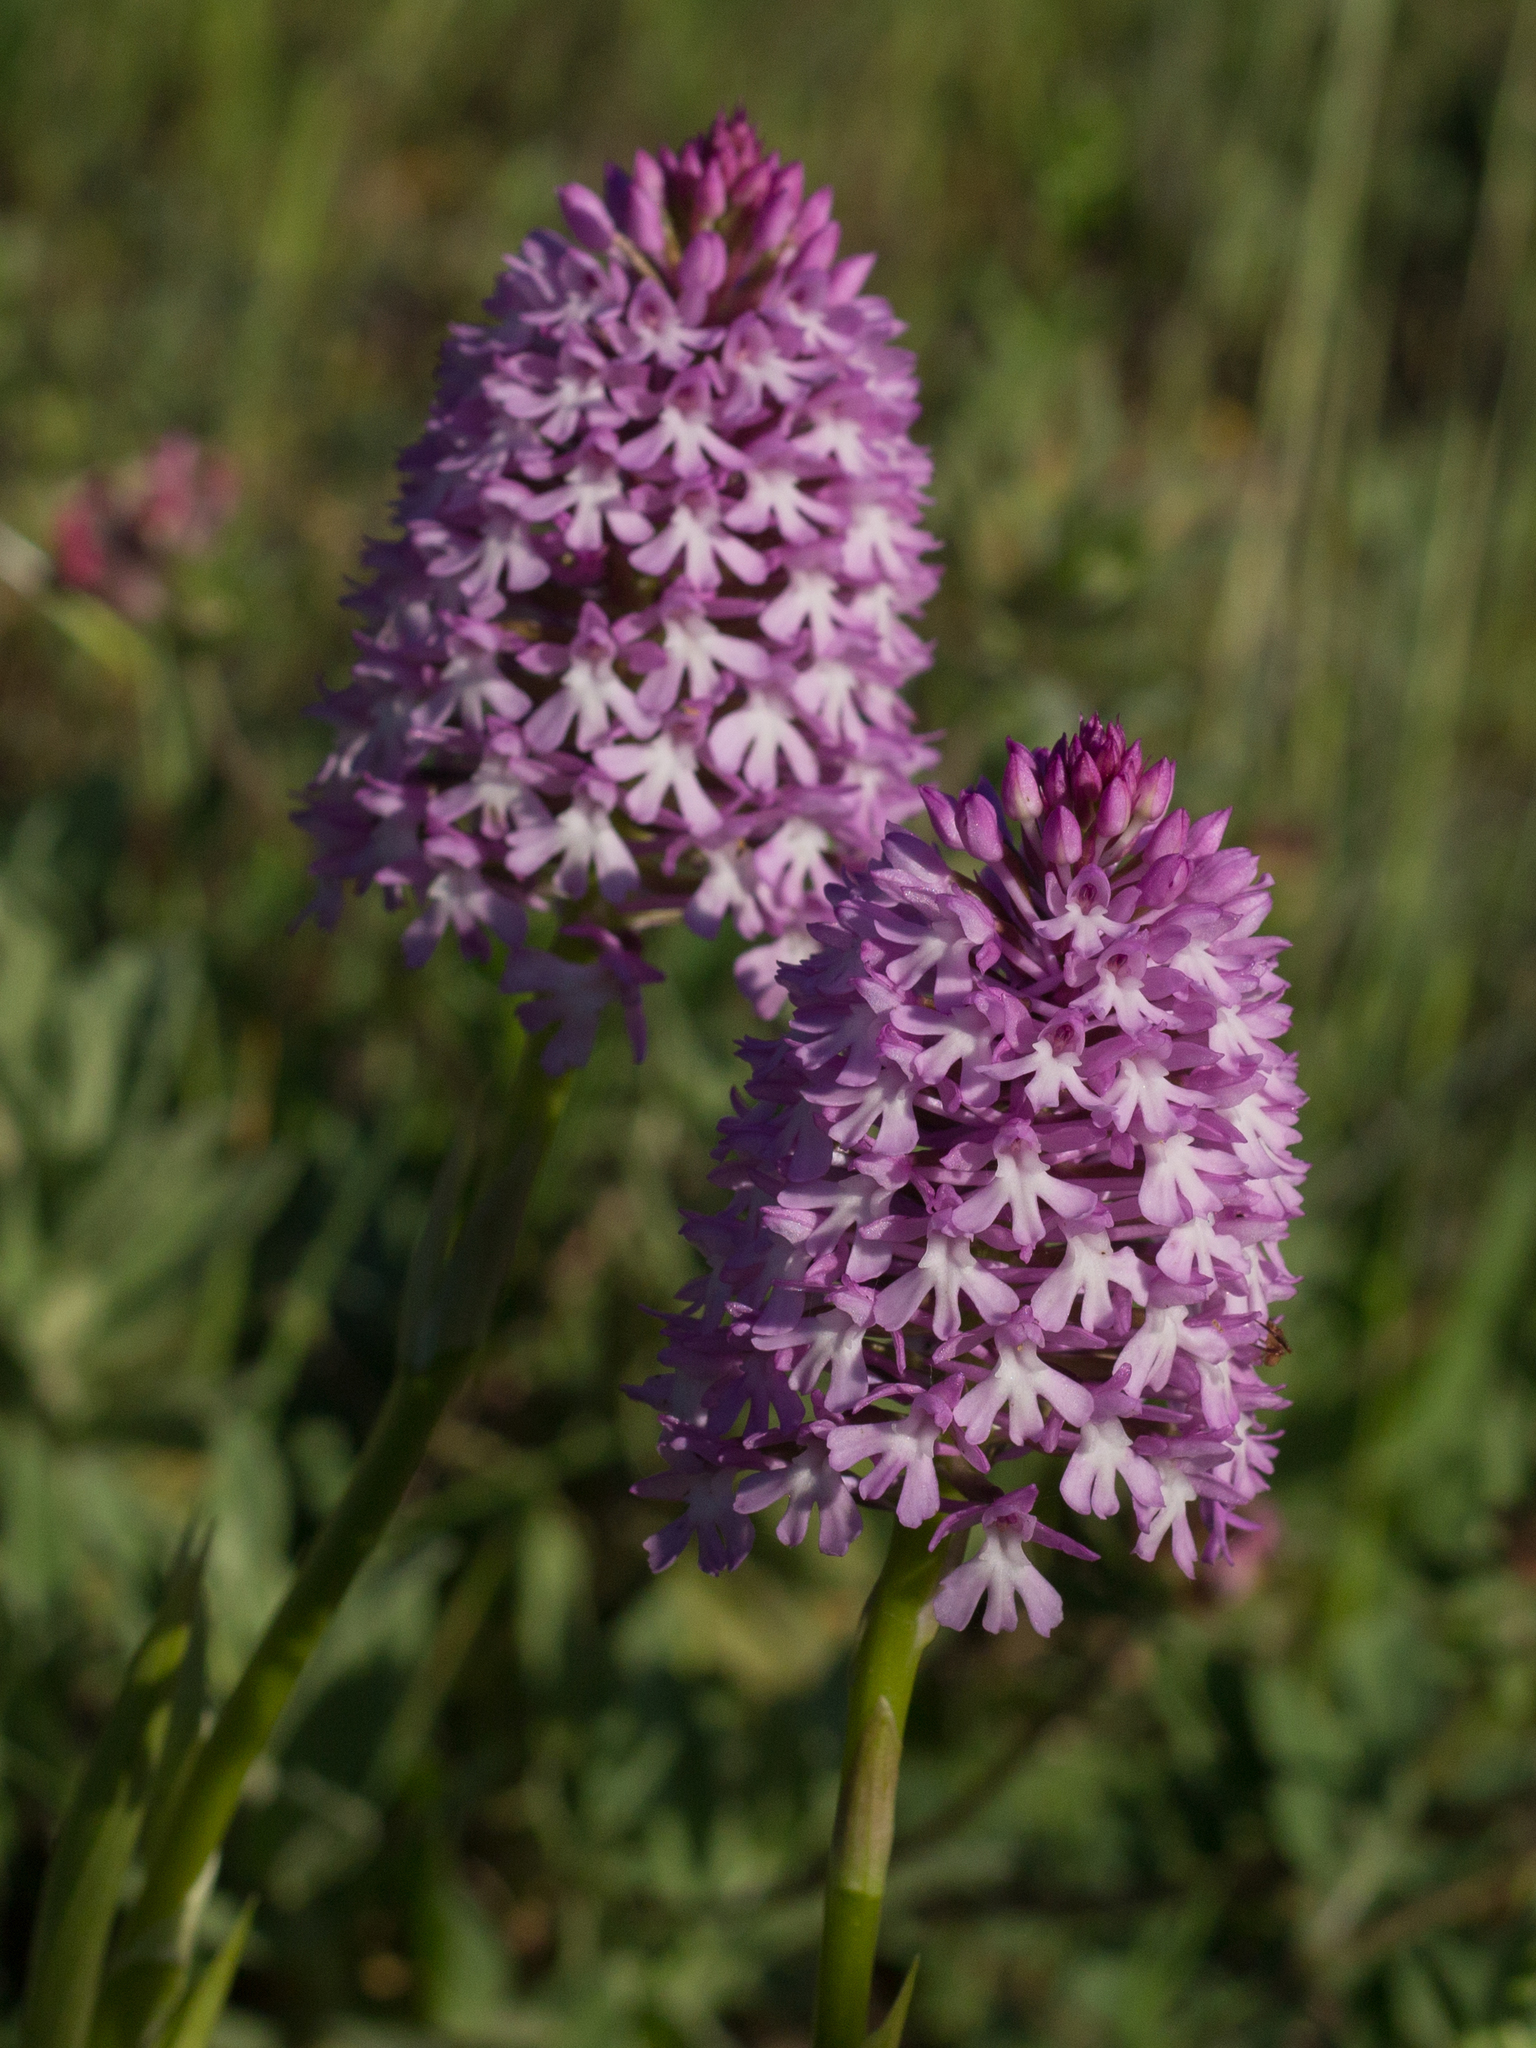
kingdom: Plantae
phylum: Tracheophyta
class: Liliopsida
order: Asparagales
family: Orchidaceae
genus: Anacamptis
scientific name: Anacamptis pyramidalis
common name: Pyramidal orchid
